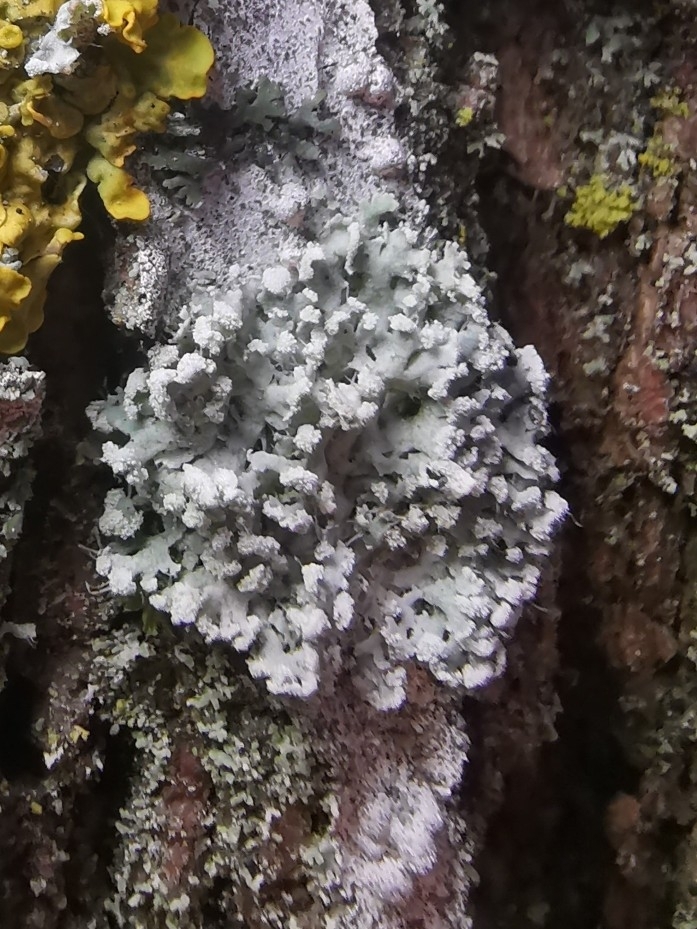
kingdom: Fungi
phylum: Ascomycota
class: Lecanoromycetes
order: Caliciales
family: Physciaceae
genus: Physcia
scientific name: Physcia tenella
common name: Fringed rosette lichen
